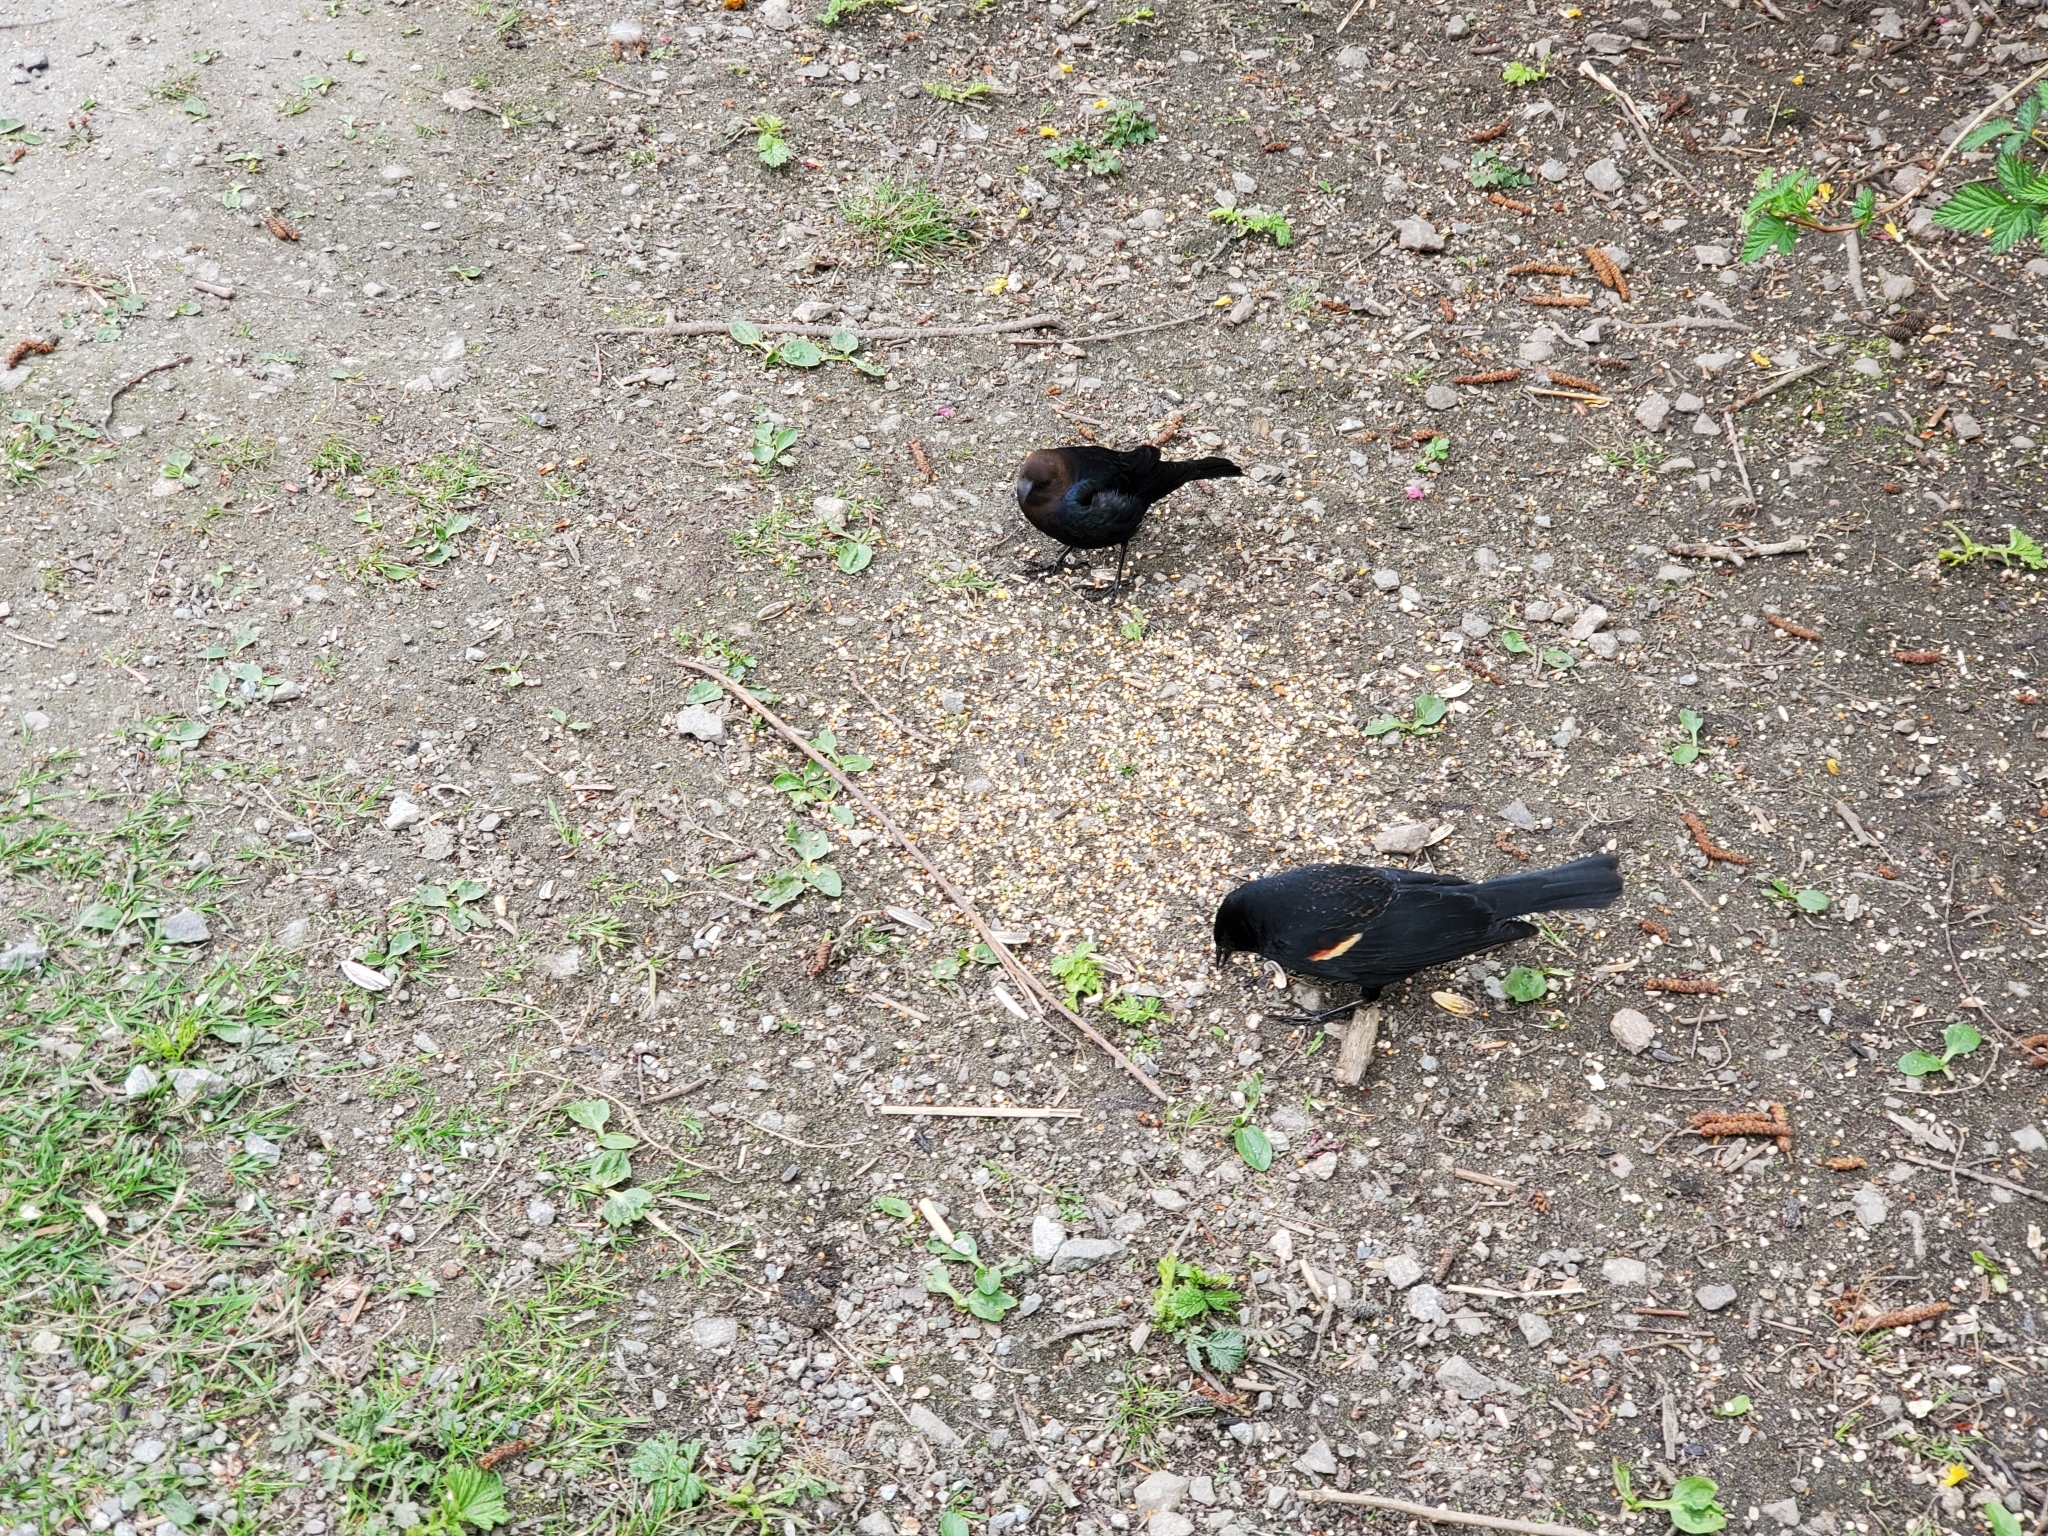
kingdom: Animalia
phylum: Chordata
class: Aves
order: Passeriformes
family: Icteridae
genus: Molothrus
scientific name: Molothrus ater
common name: Brown-headed cowbird
